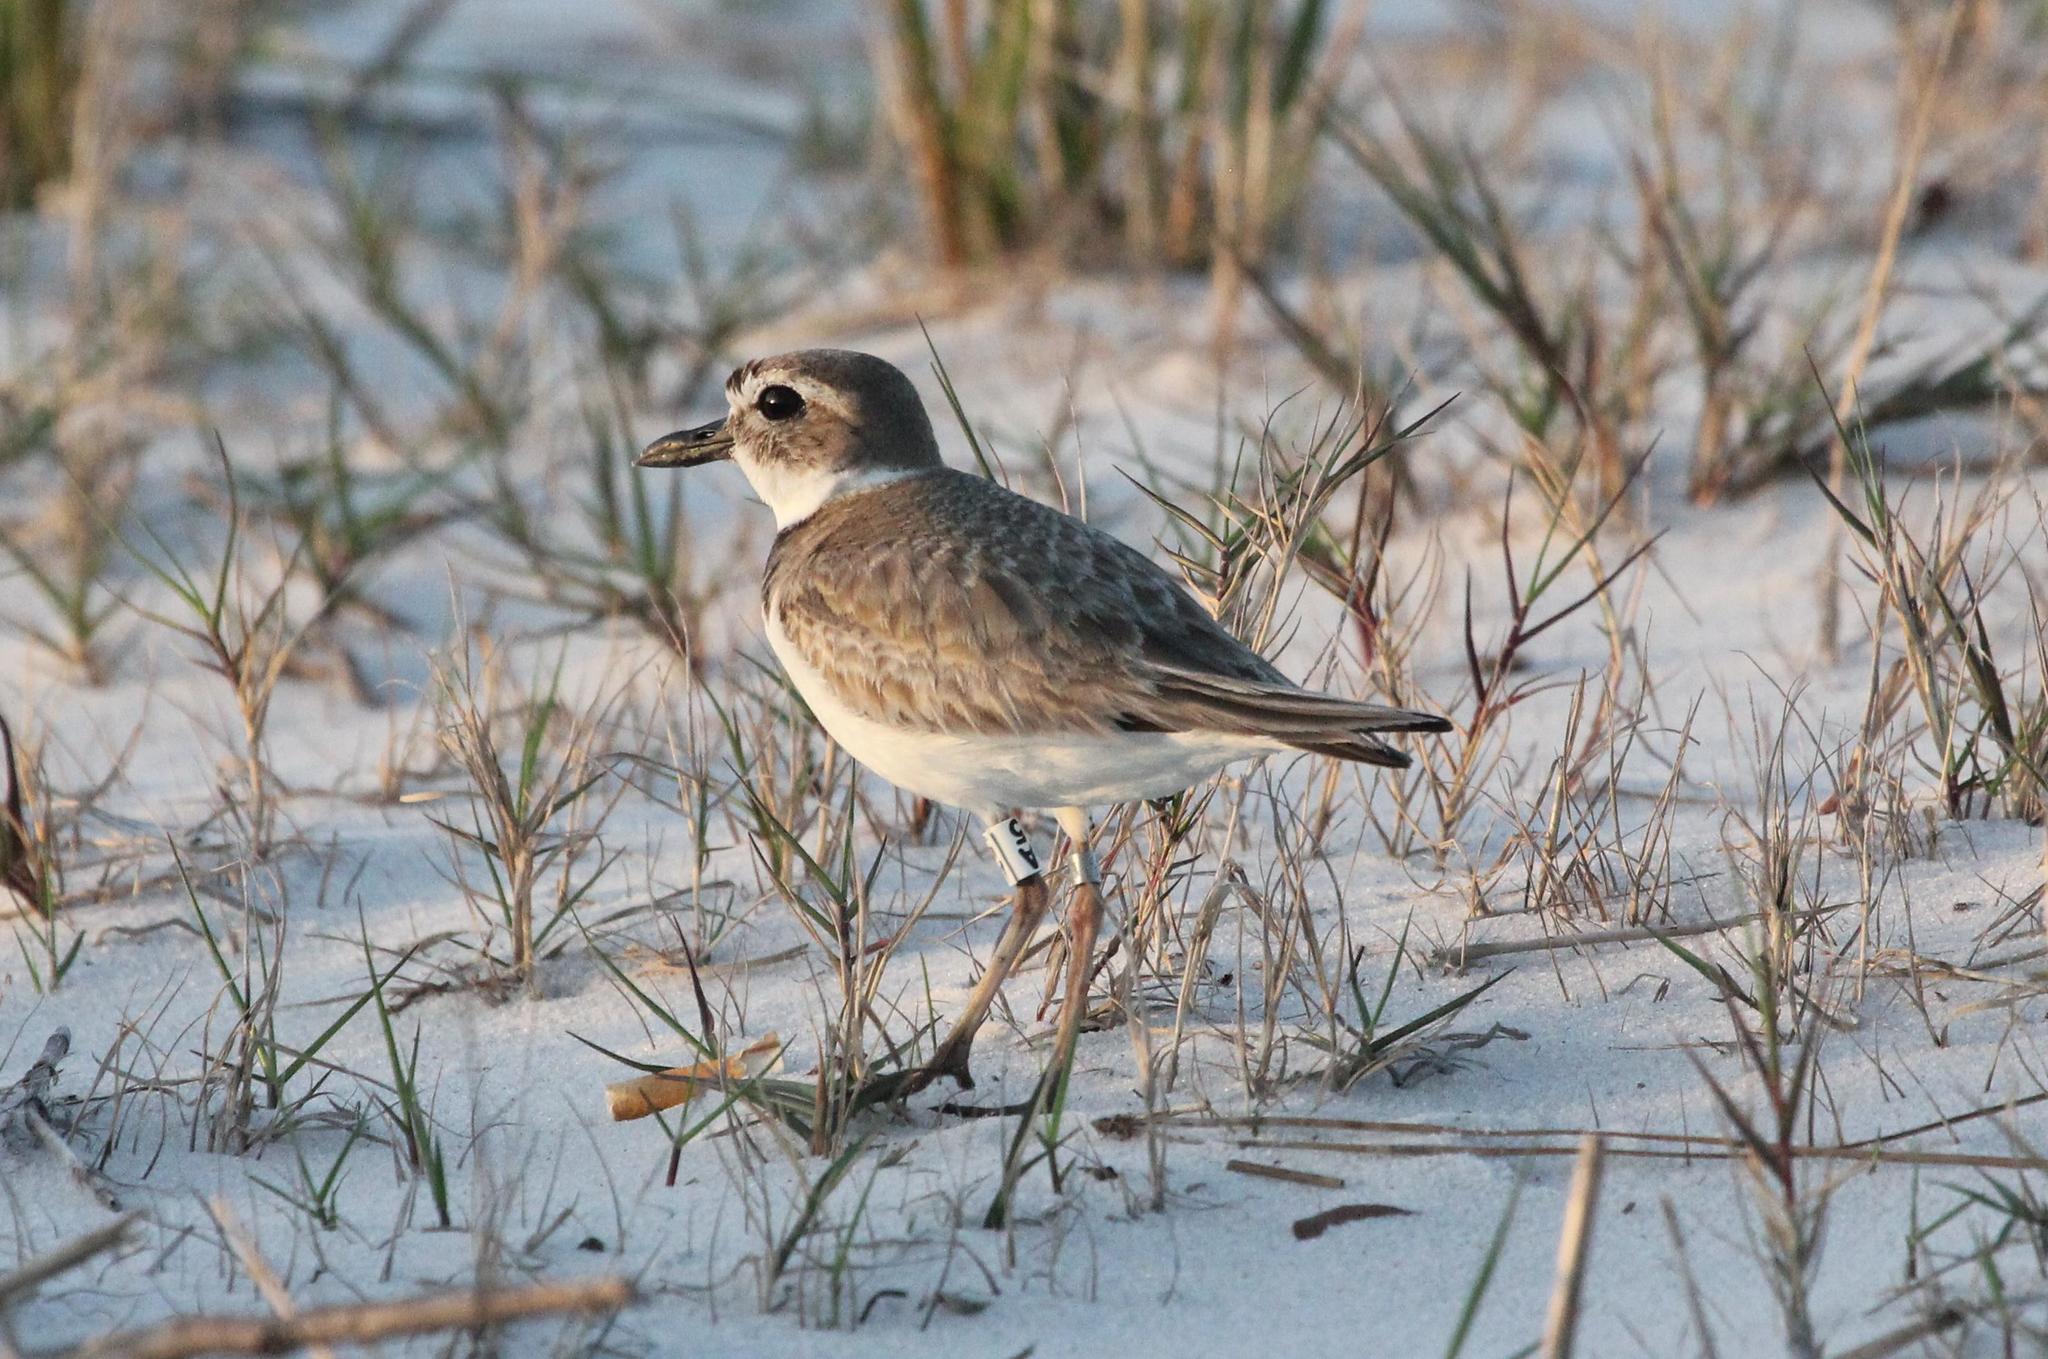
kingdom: Animalia
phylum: Chordata
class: Aves
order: Charadriiformes
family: Charadriidae
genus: Anarhynchus
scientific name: Anarhynchus
